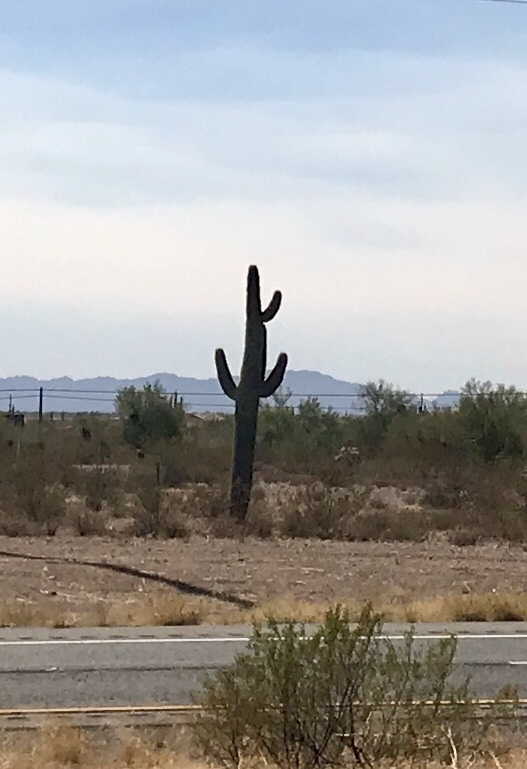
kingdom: Plantae
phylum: Tracheophyta
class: Magnoliopsida
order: Caryophyllales
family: Cactaceae
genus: Carnegiea
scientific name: Carnegiea gigantea
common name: Saguaro
